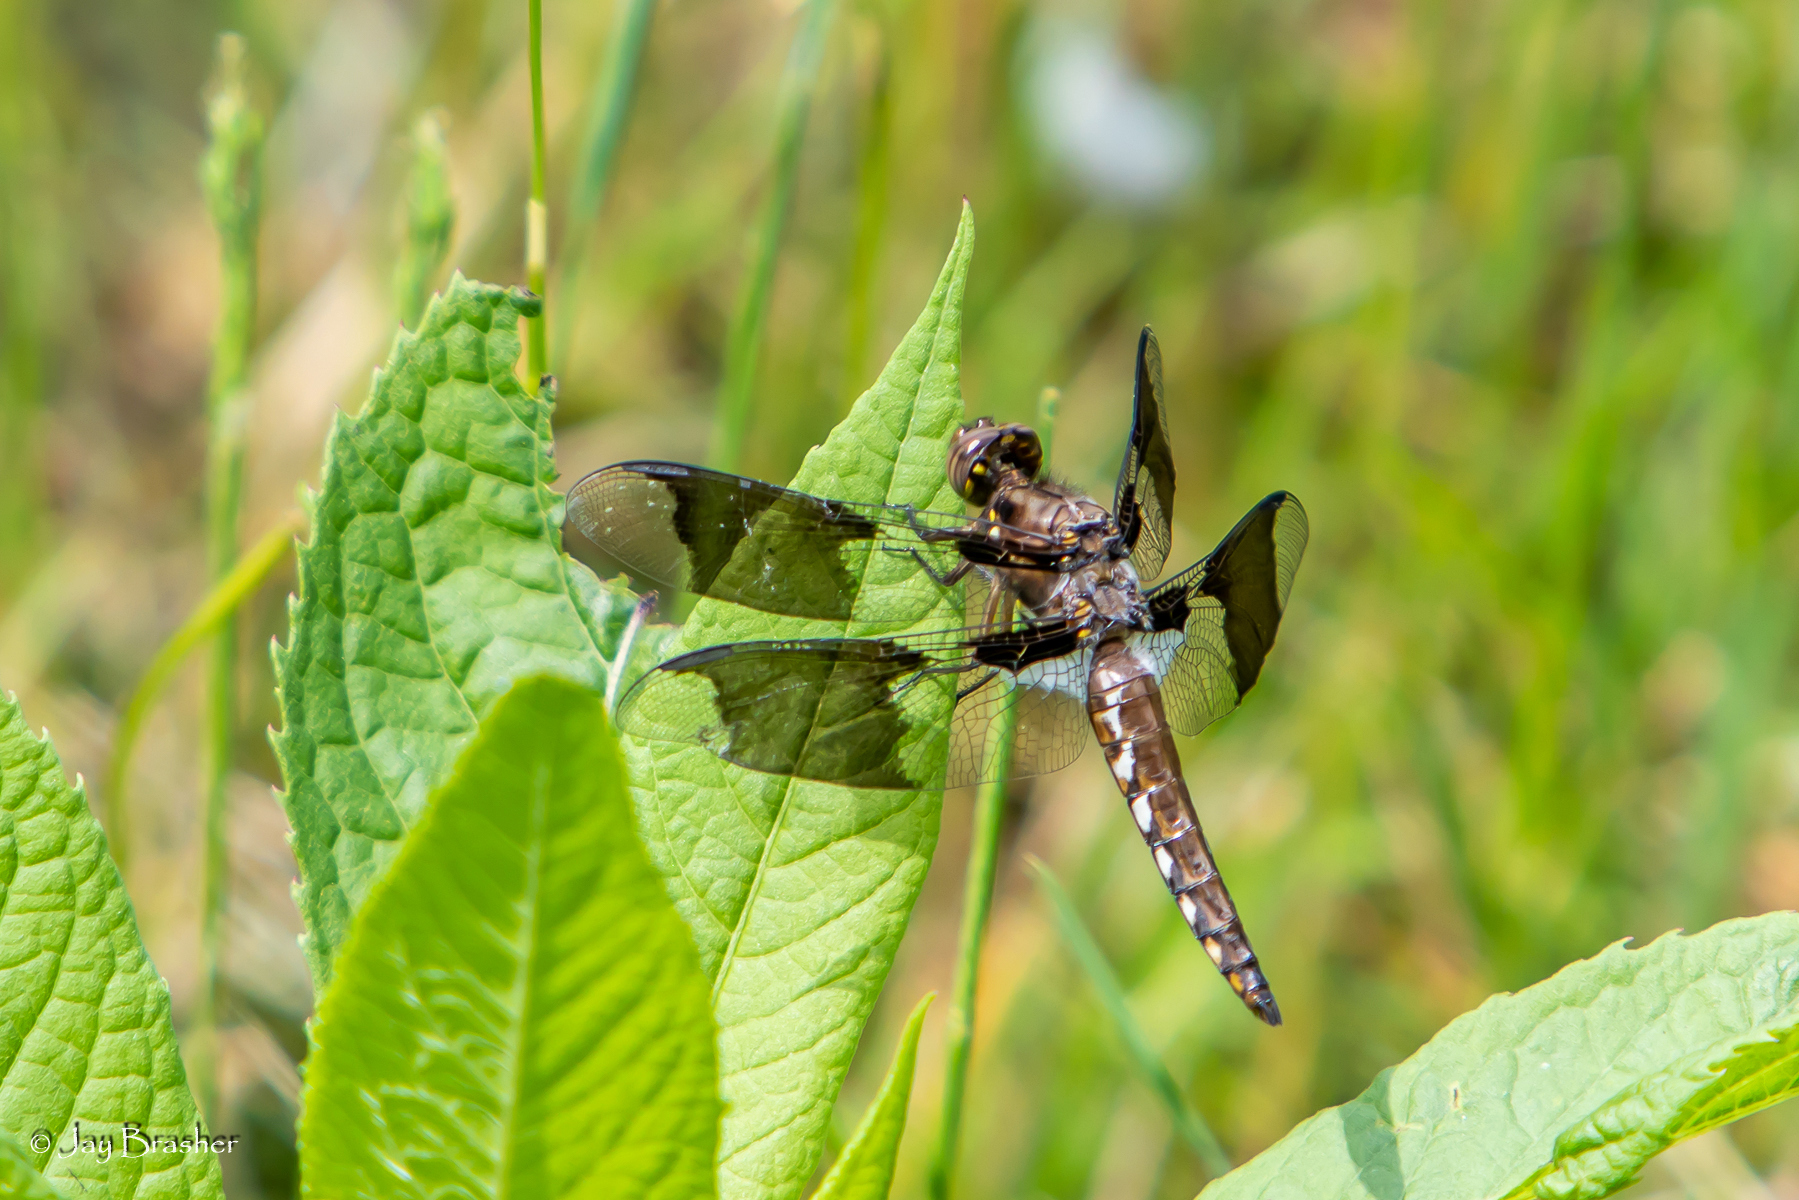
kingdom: Animalia
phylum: Arthropoda
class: Insecta
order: Odonata
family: Libellulidae
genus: Plathemis
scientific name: Plathemis lydia
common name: Common whitetail
